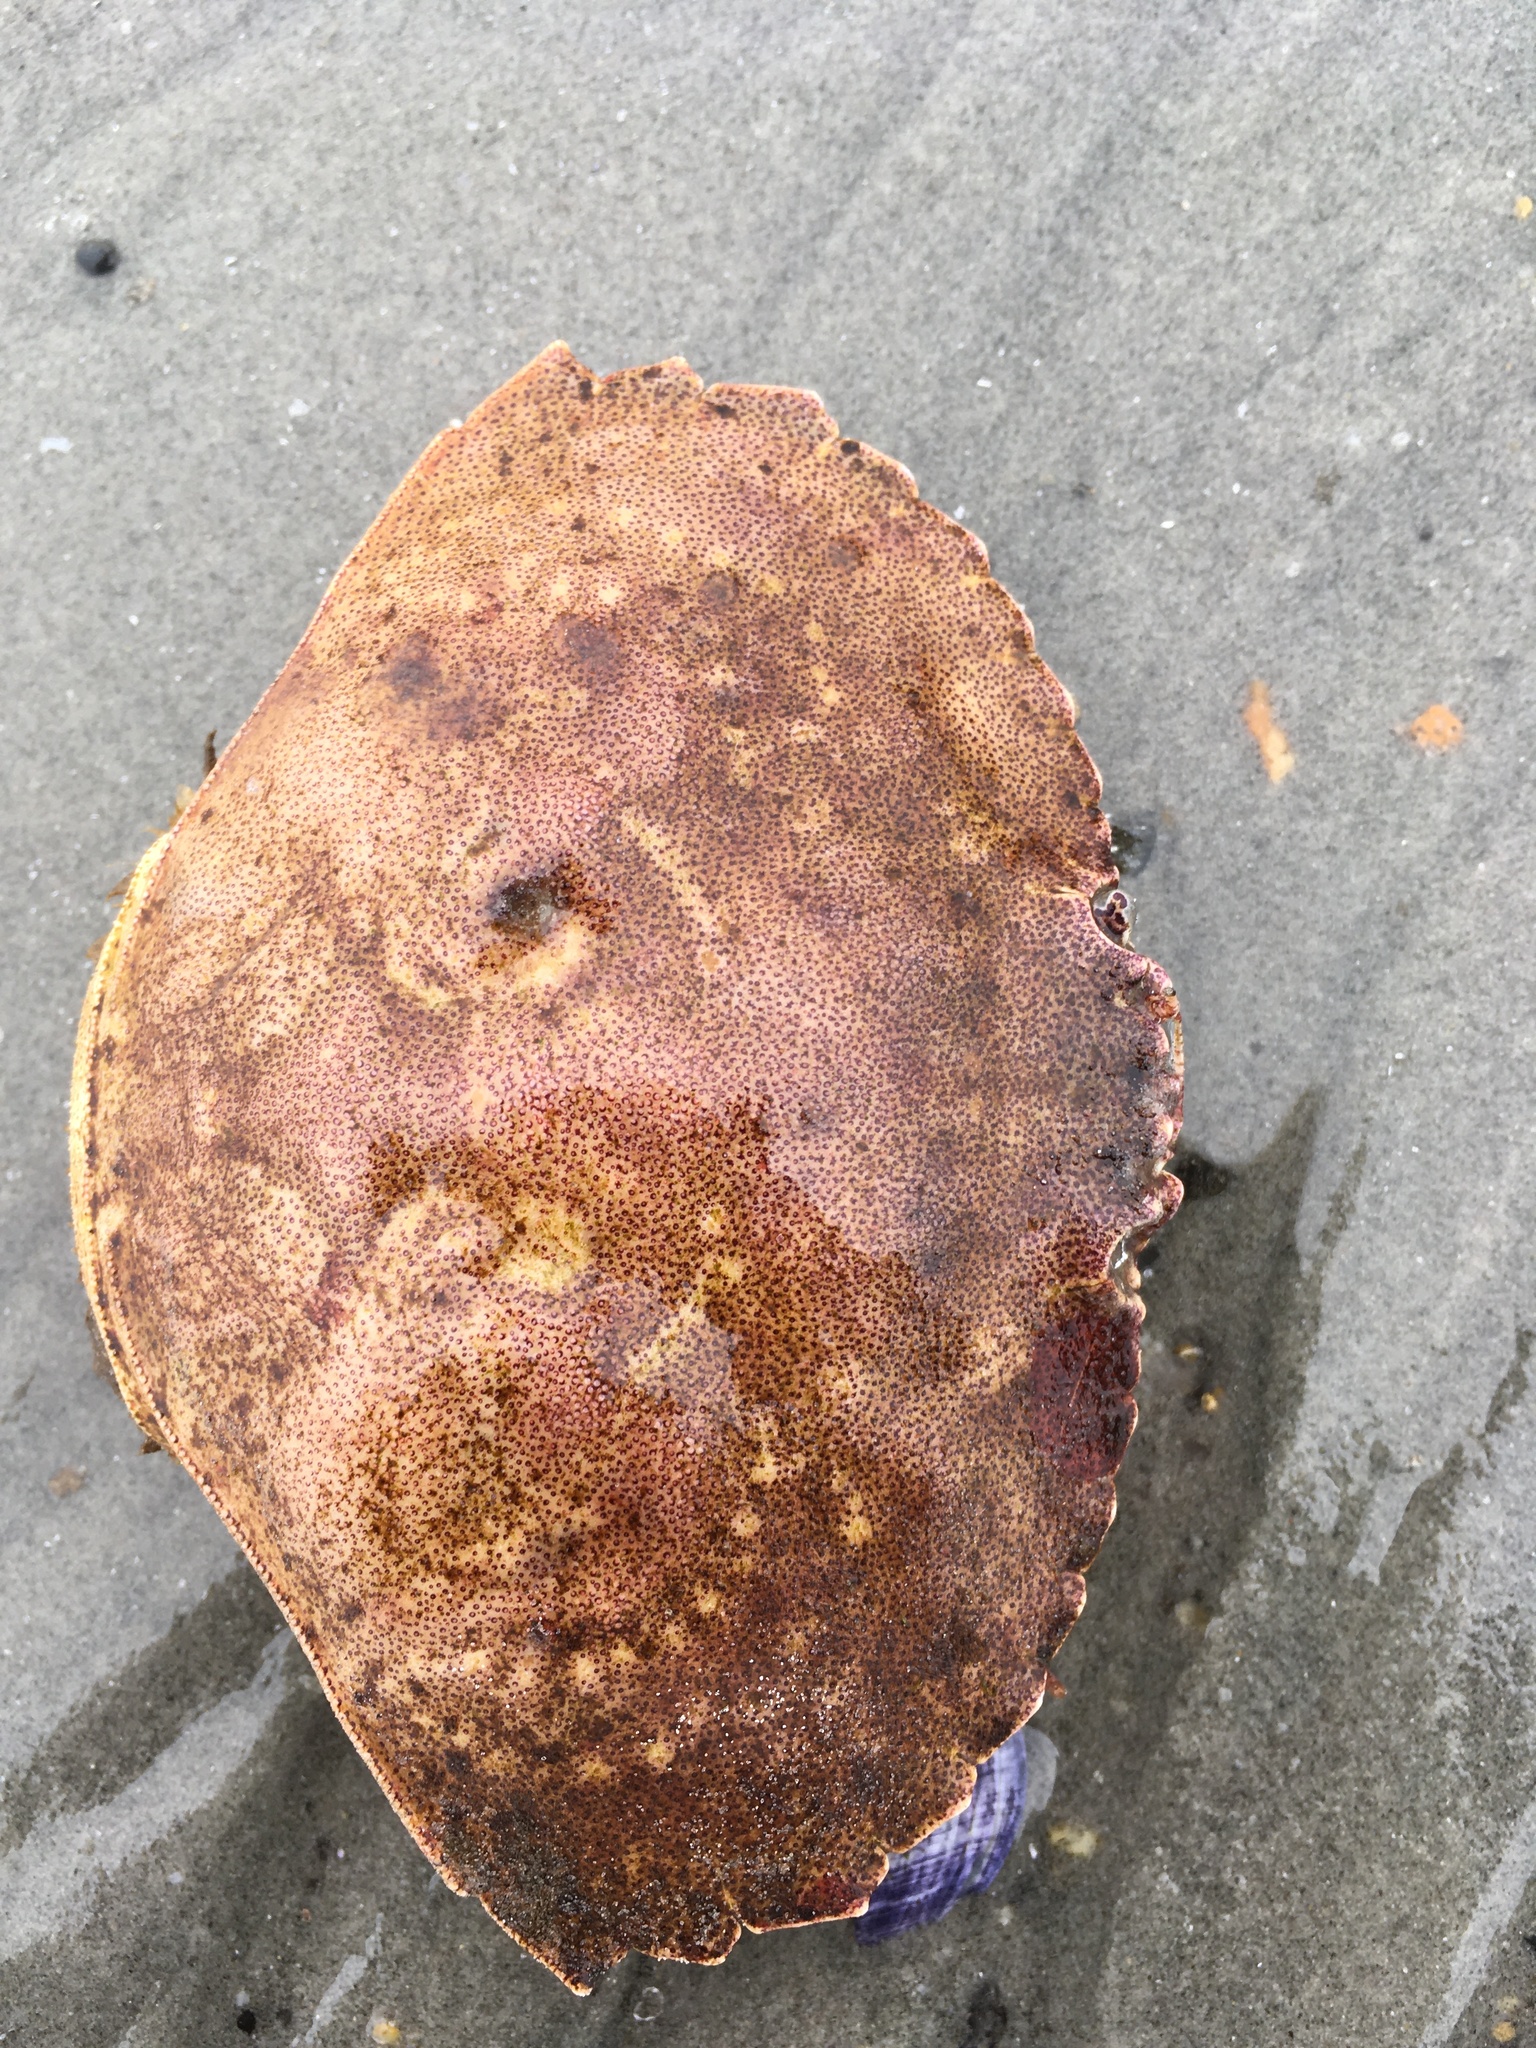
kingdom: Animalia
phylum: Arthropoda
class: Malacostraca
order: Decapoda
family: Cancridae
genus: Cancer
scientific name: Cancer irroratus
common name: Atlantic rock crab
